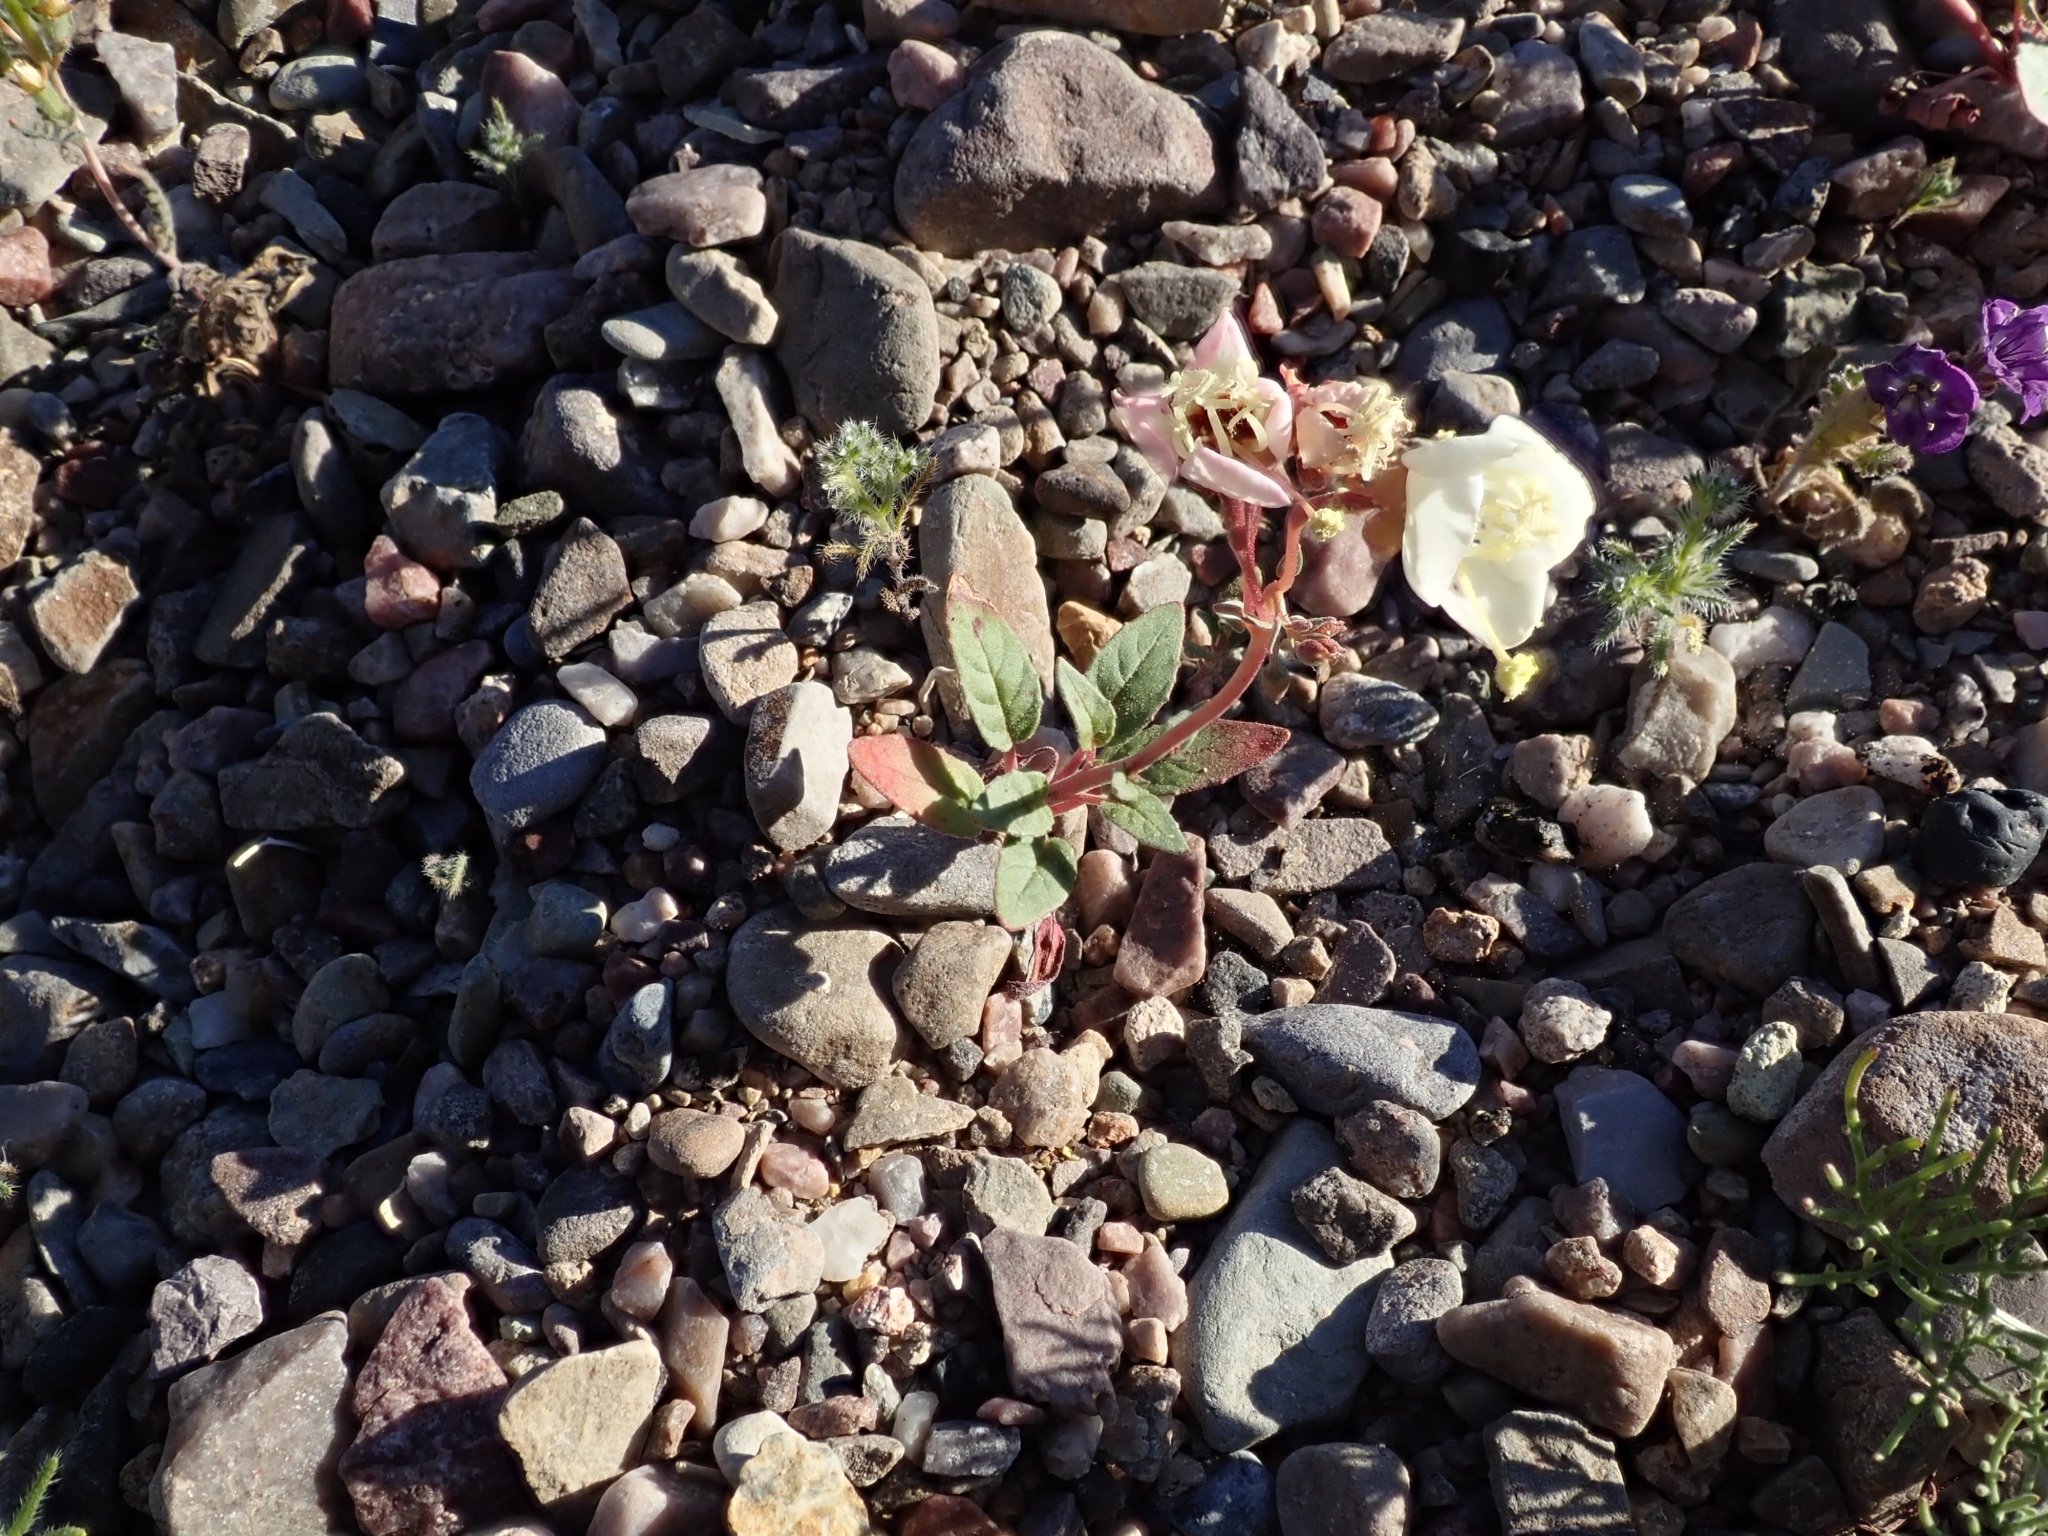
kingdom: Plantae
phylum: Tracheophyta
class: Magnoliopsida
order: Myrtales
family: Onagraceae
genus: Chylismia
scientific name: Chylismia claviformis
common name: Browneyes
